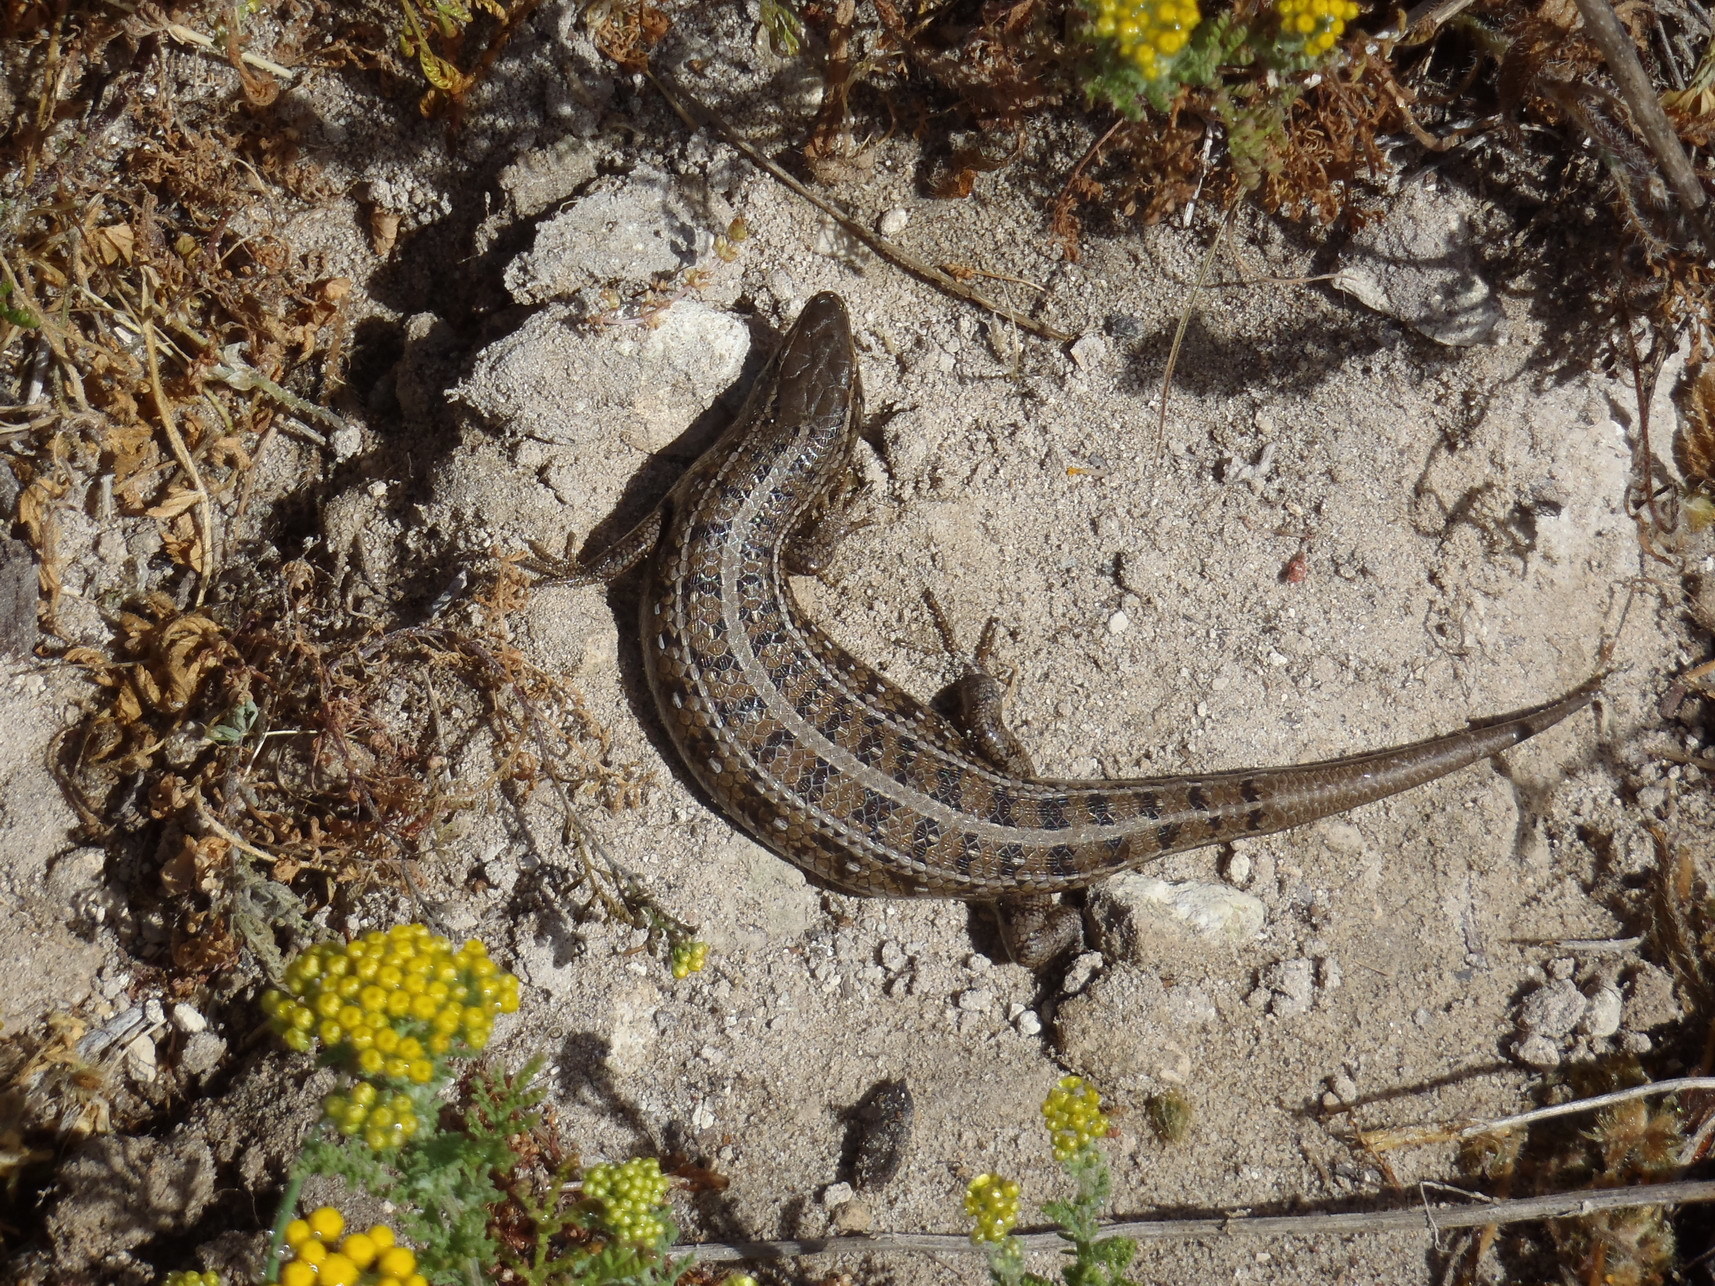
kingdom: Animalia
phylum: Chordata
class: Squamata
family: Scincidae
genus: Trachylepis
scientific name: Trachylepis capensis
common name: Cape skink
